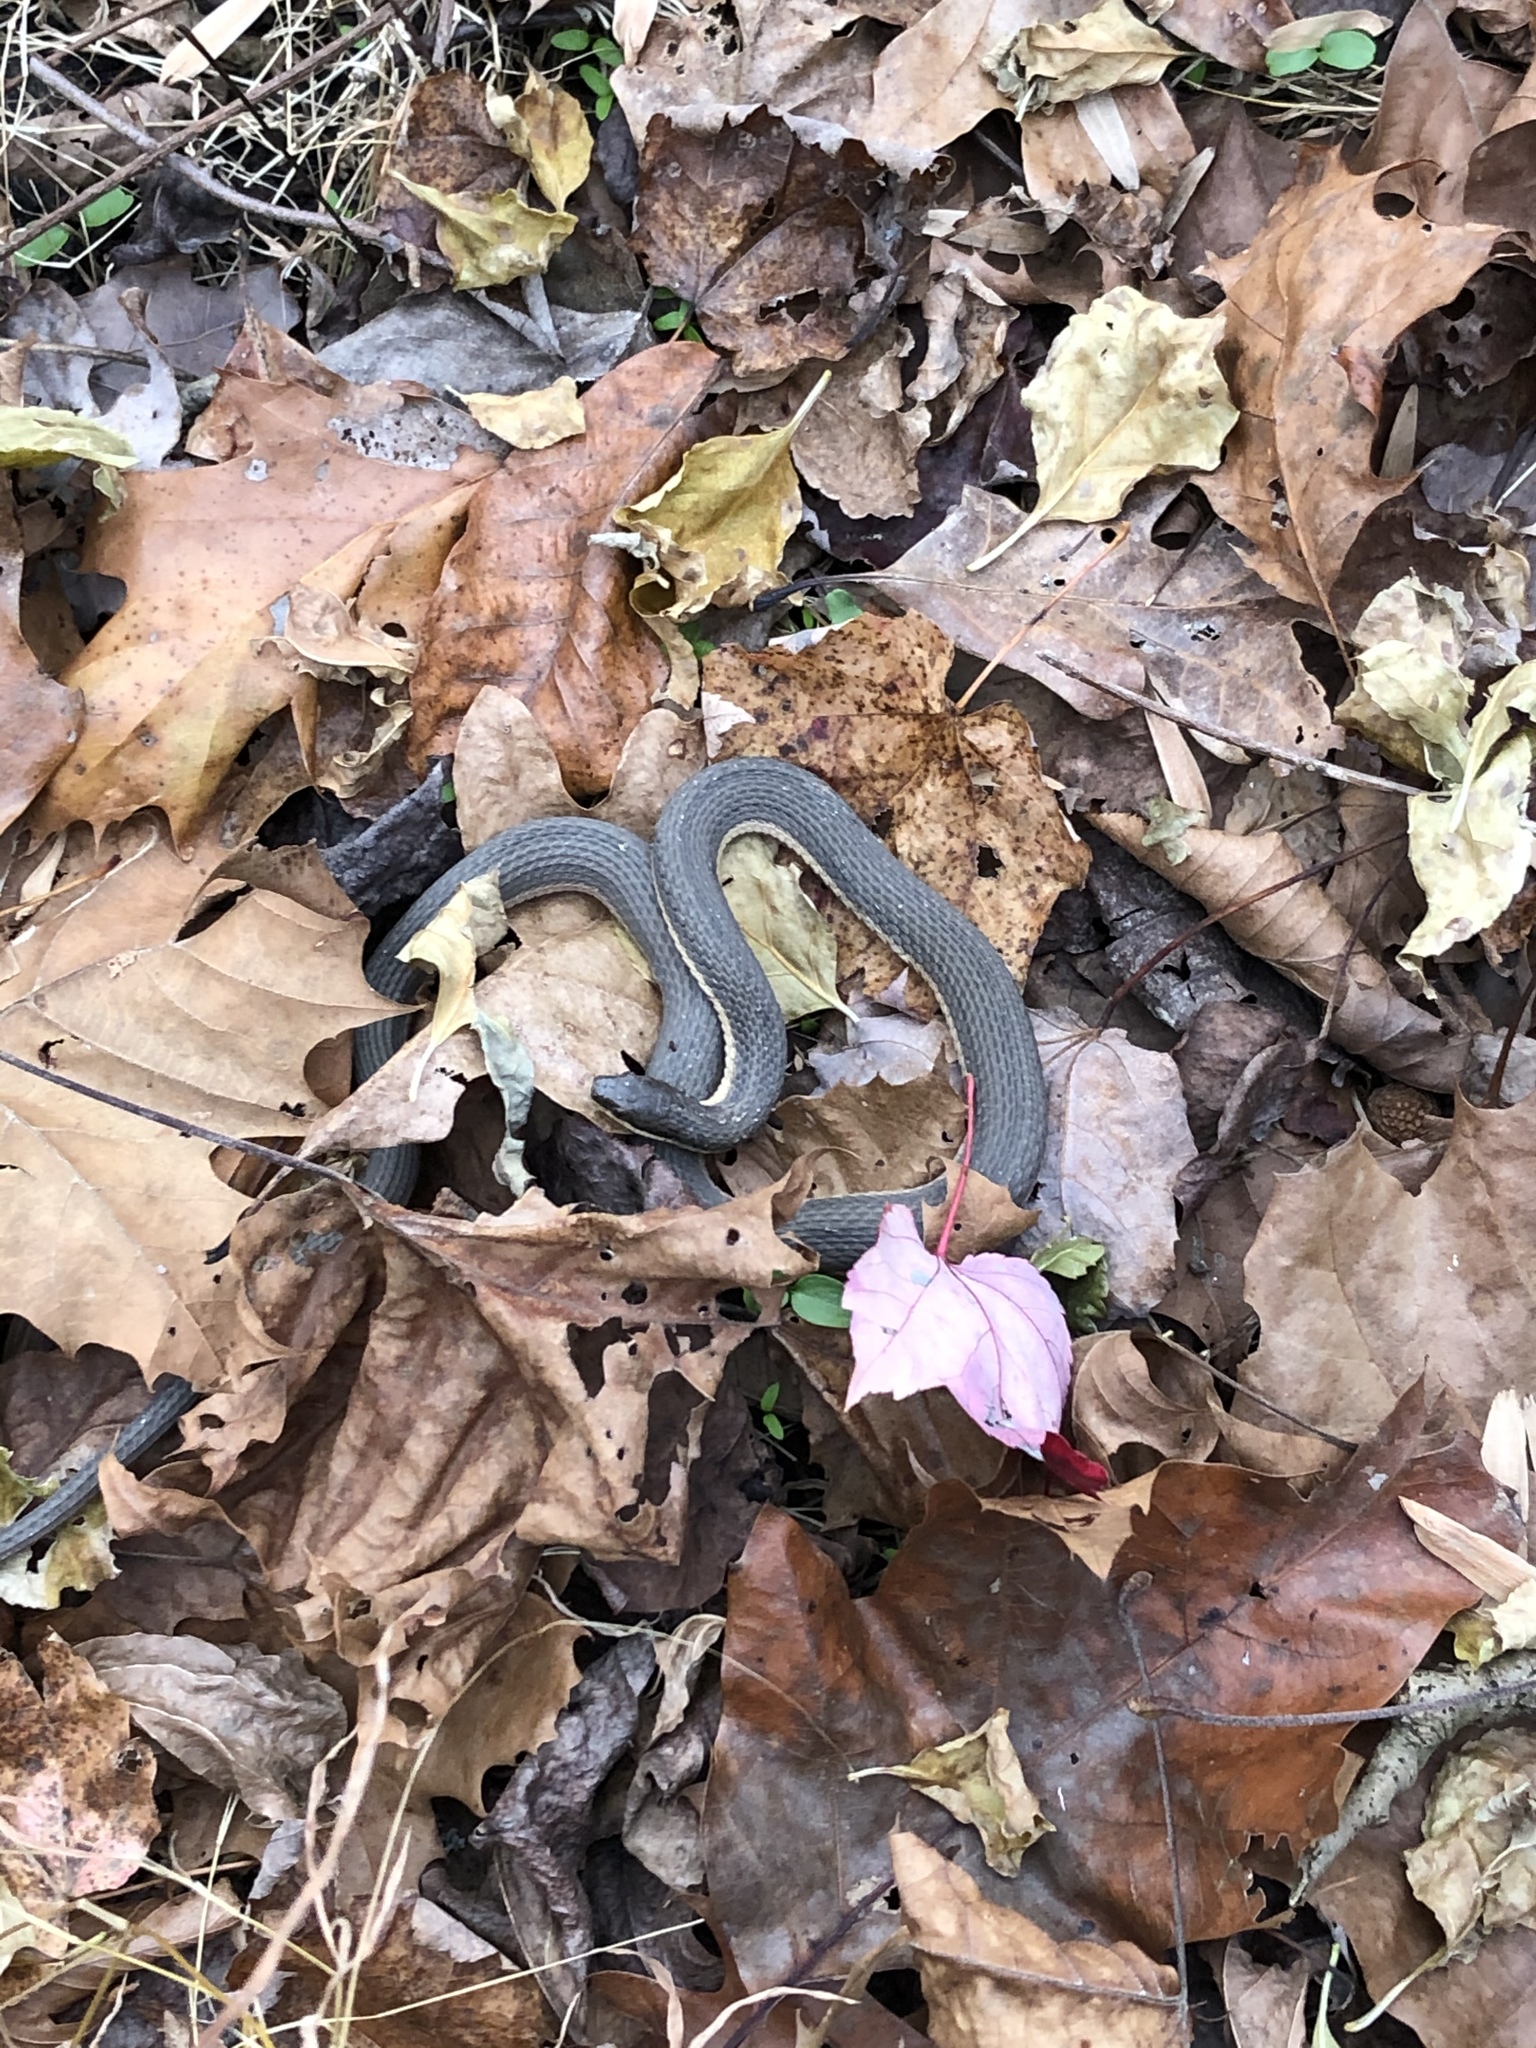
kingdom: Animalia
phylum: Chordata
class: Squamata
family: Colubridae
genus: Regina
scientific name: Regina septemvittata
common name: Queen snake
